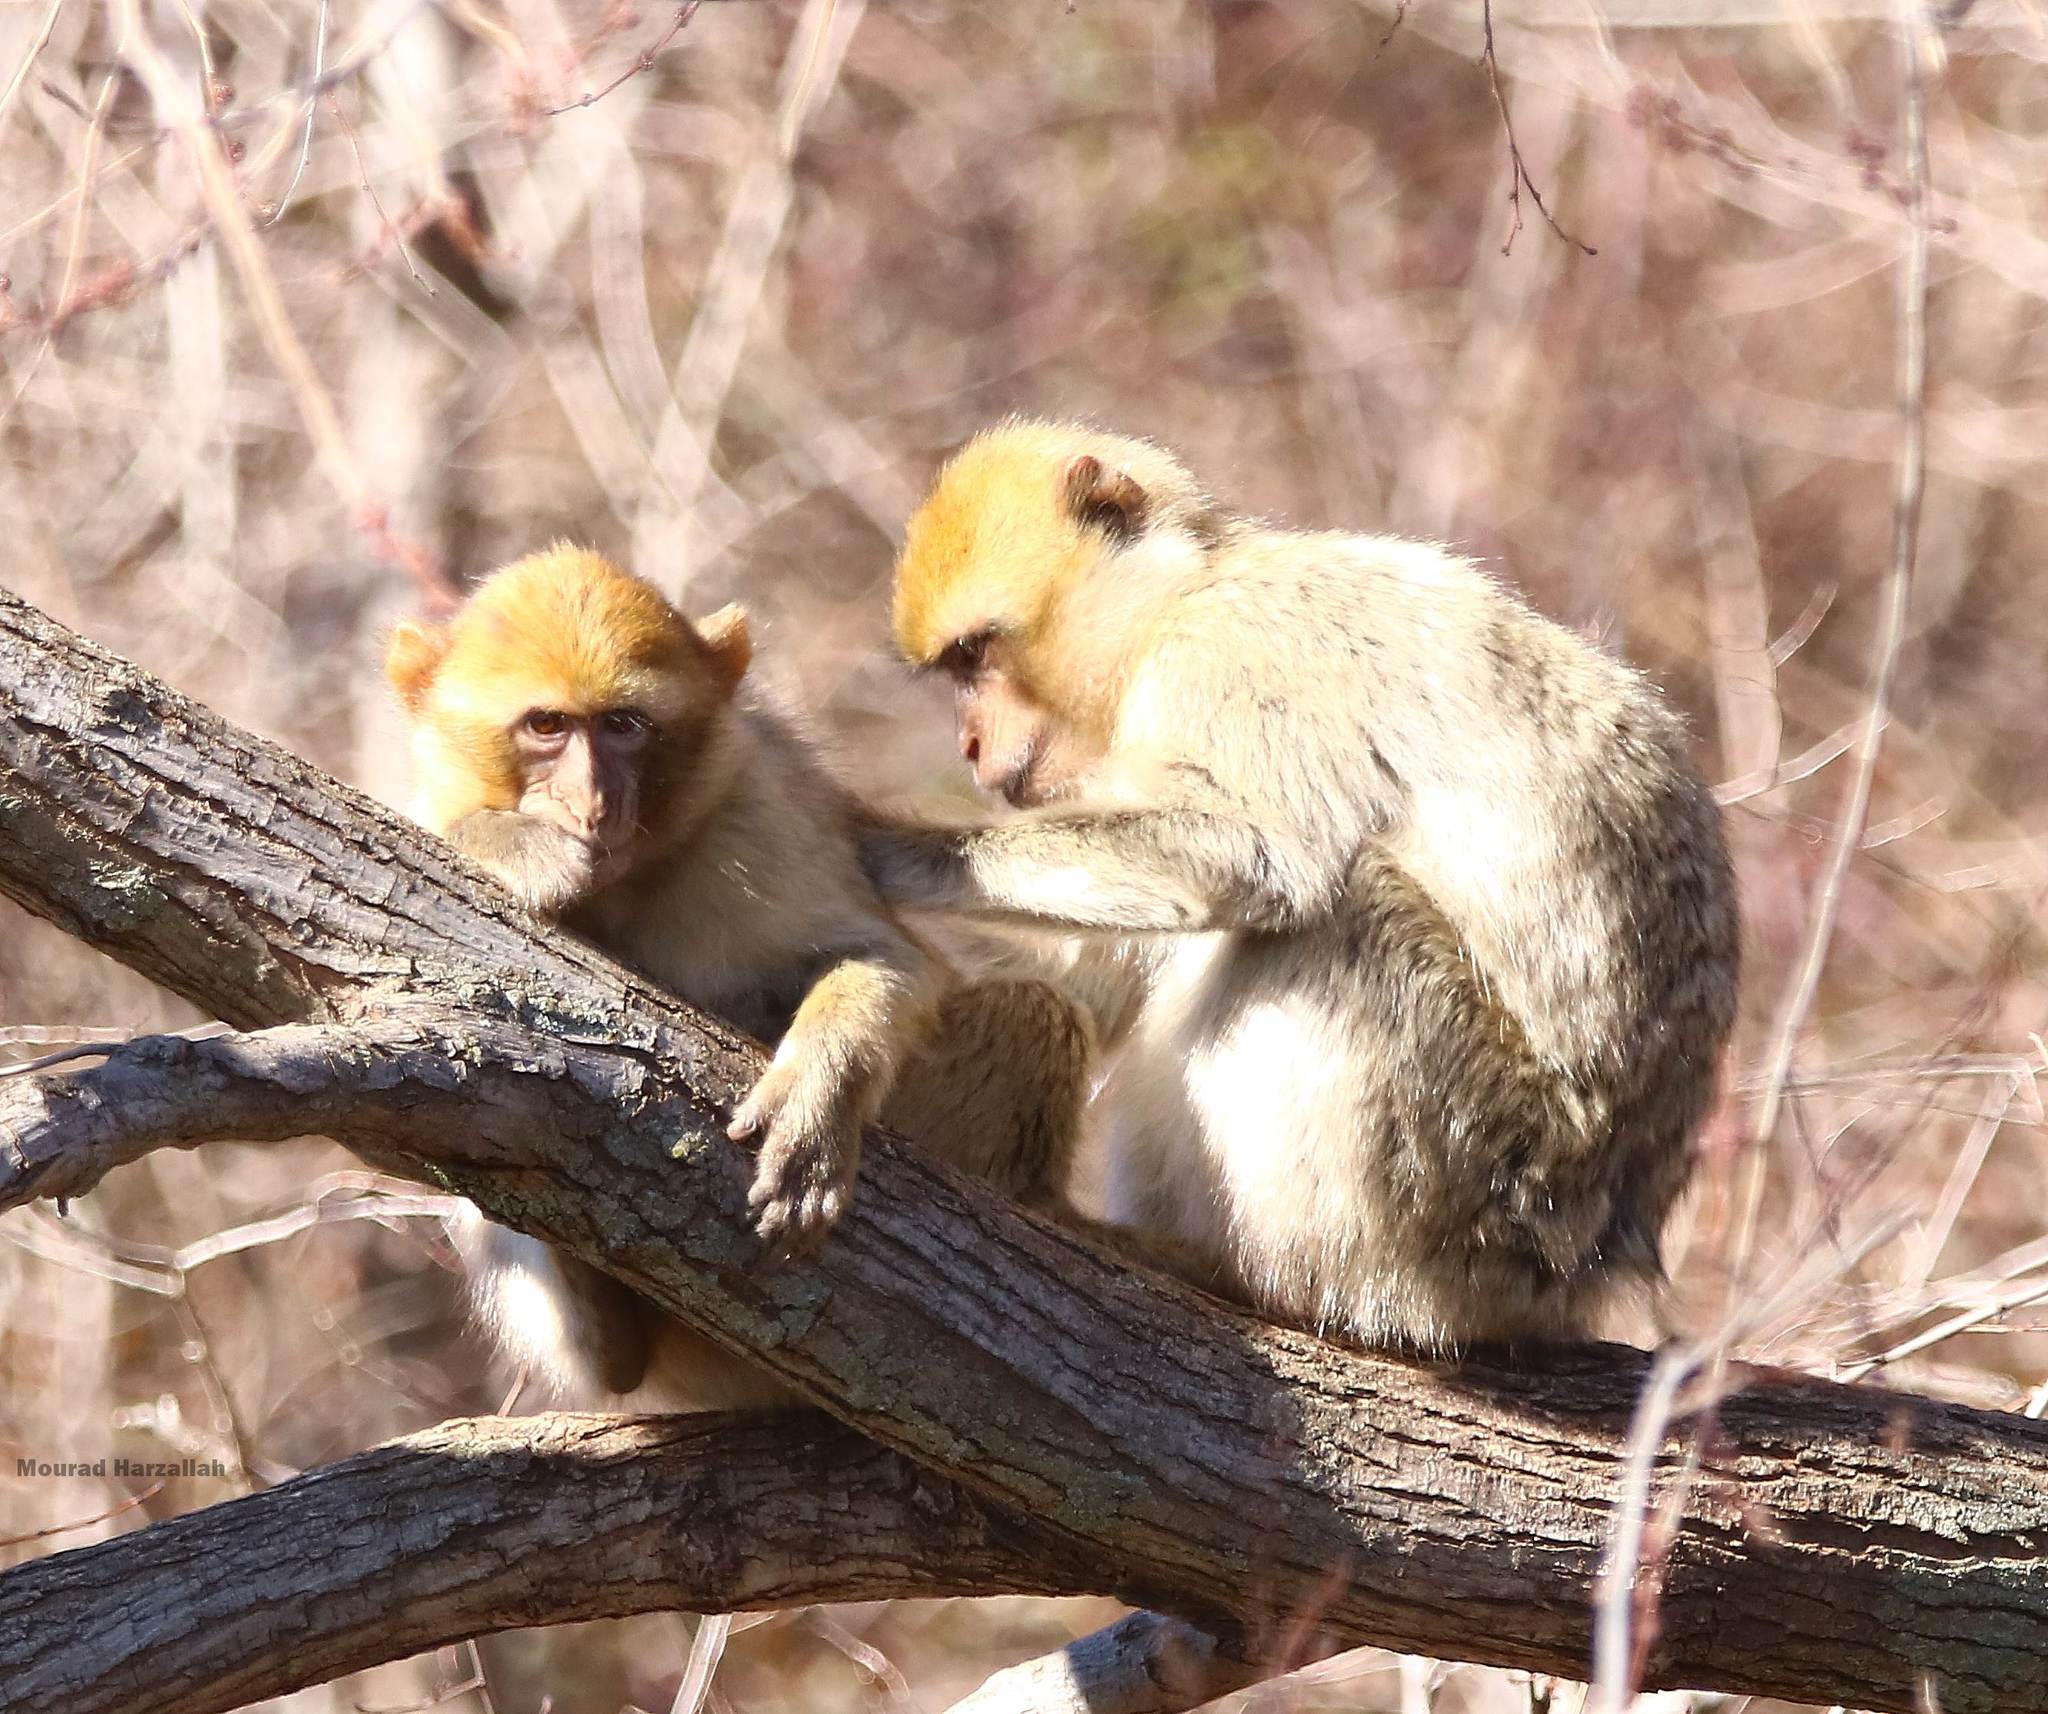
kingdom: Animalia
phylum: Chordata
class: Mammalia
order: Primates
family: Cercopithecidae
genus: Macaca
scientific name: Macaca sylvanus
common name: Barbary macaque
